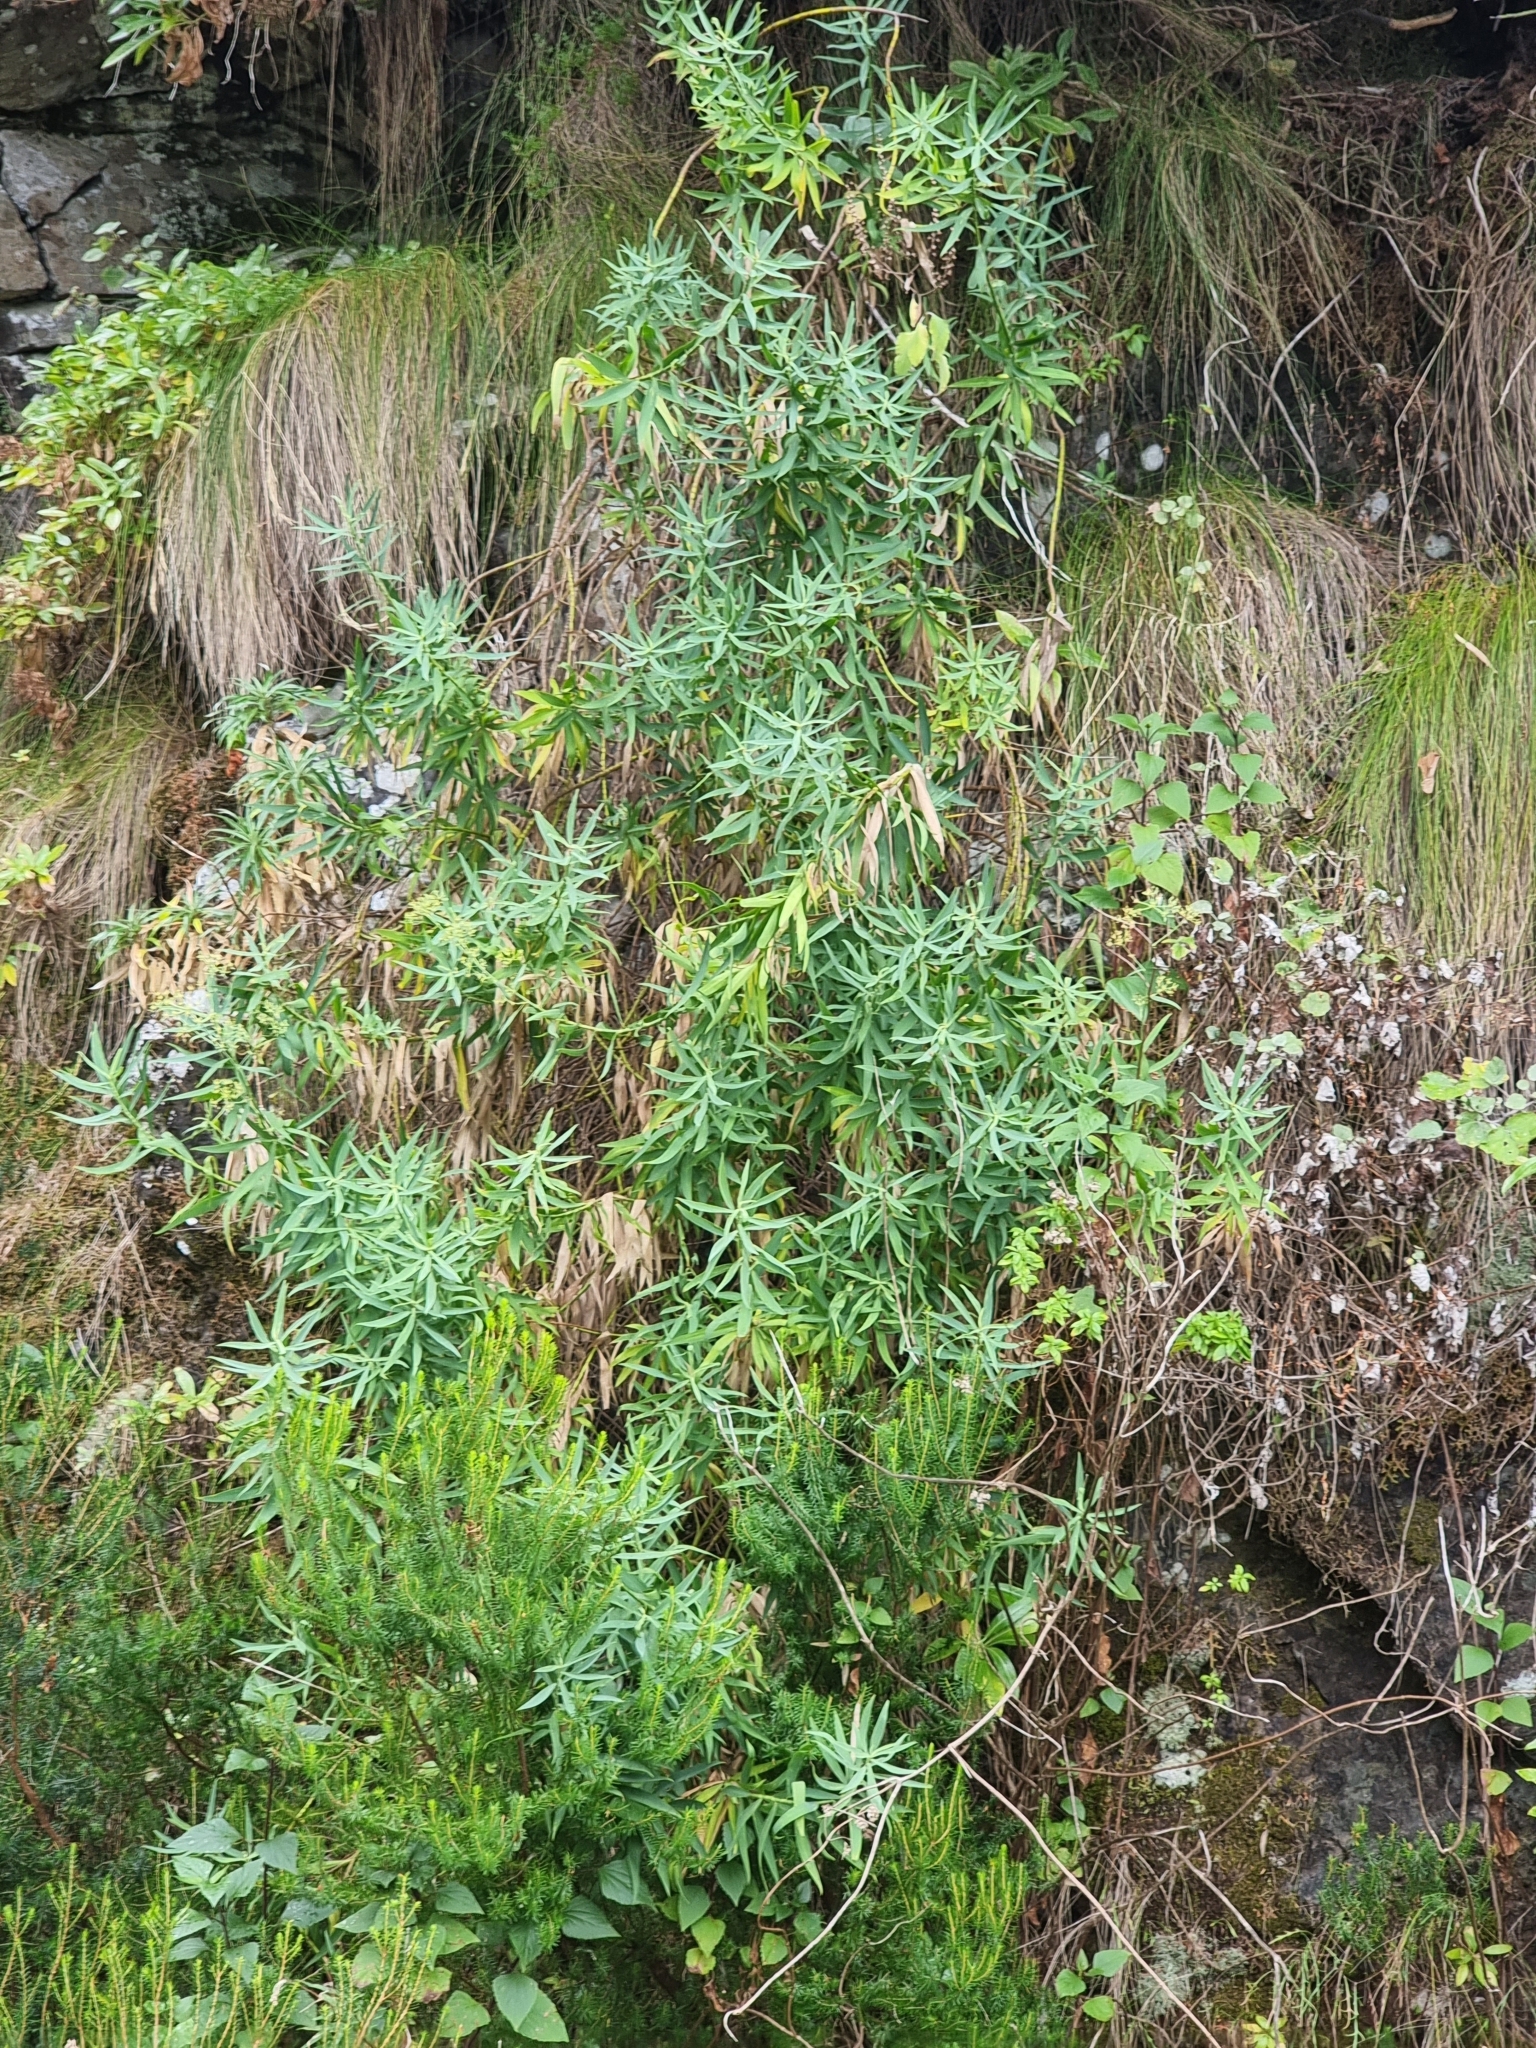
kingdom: Plantae
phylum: Tracheophyta
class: Magnoliopsida
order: Apiales
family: Apiaceae
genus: Bupleurum
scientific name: Bupleurum salicifolium
